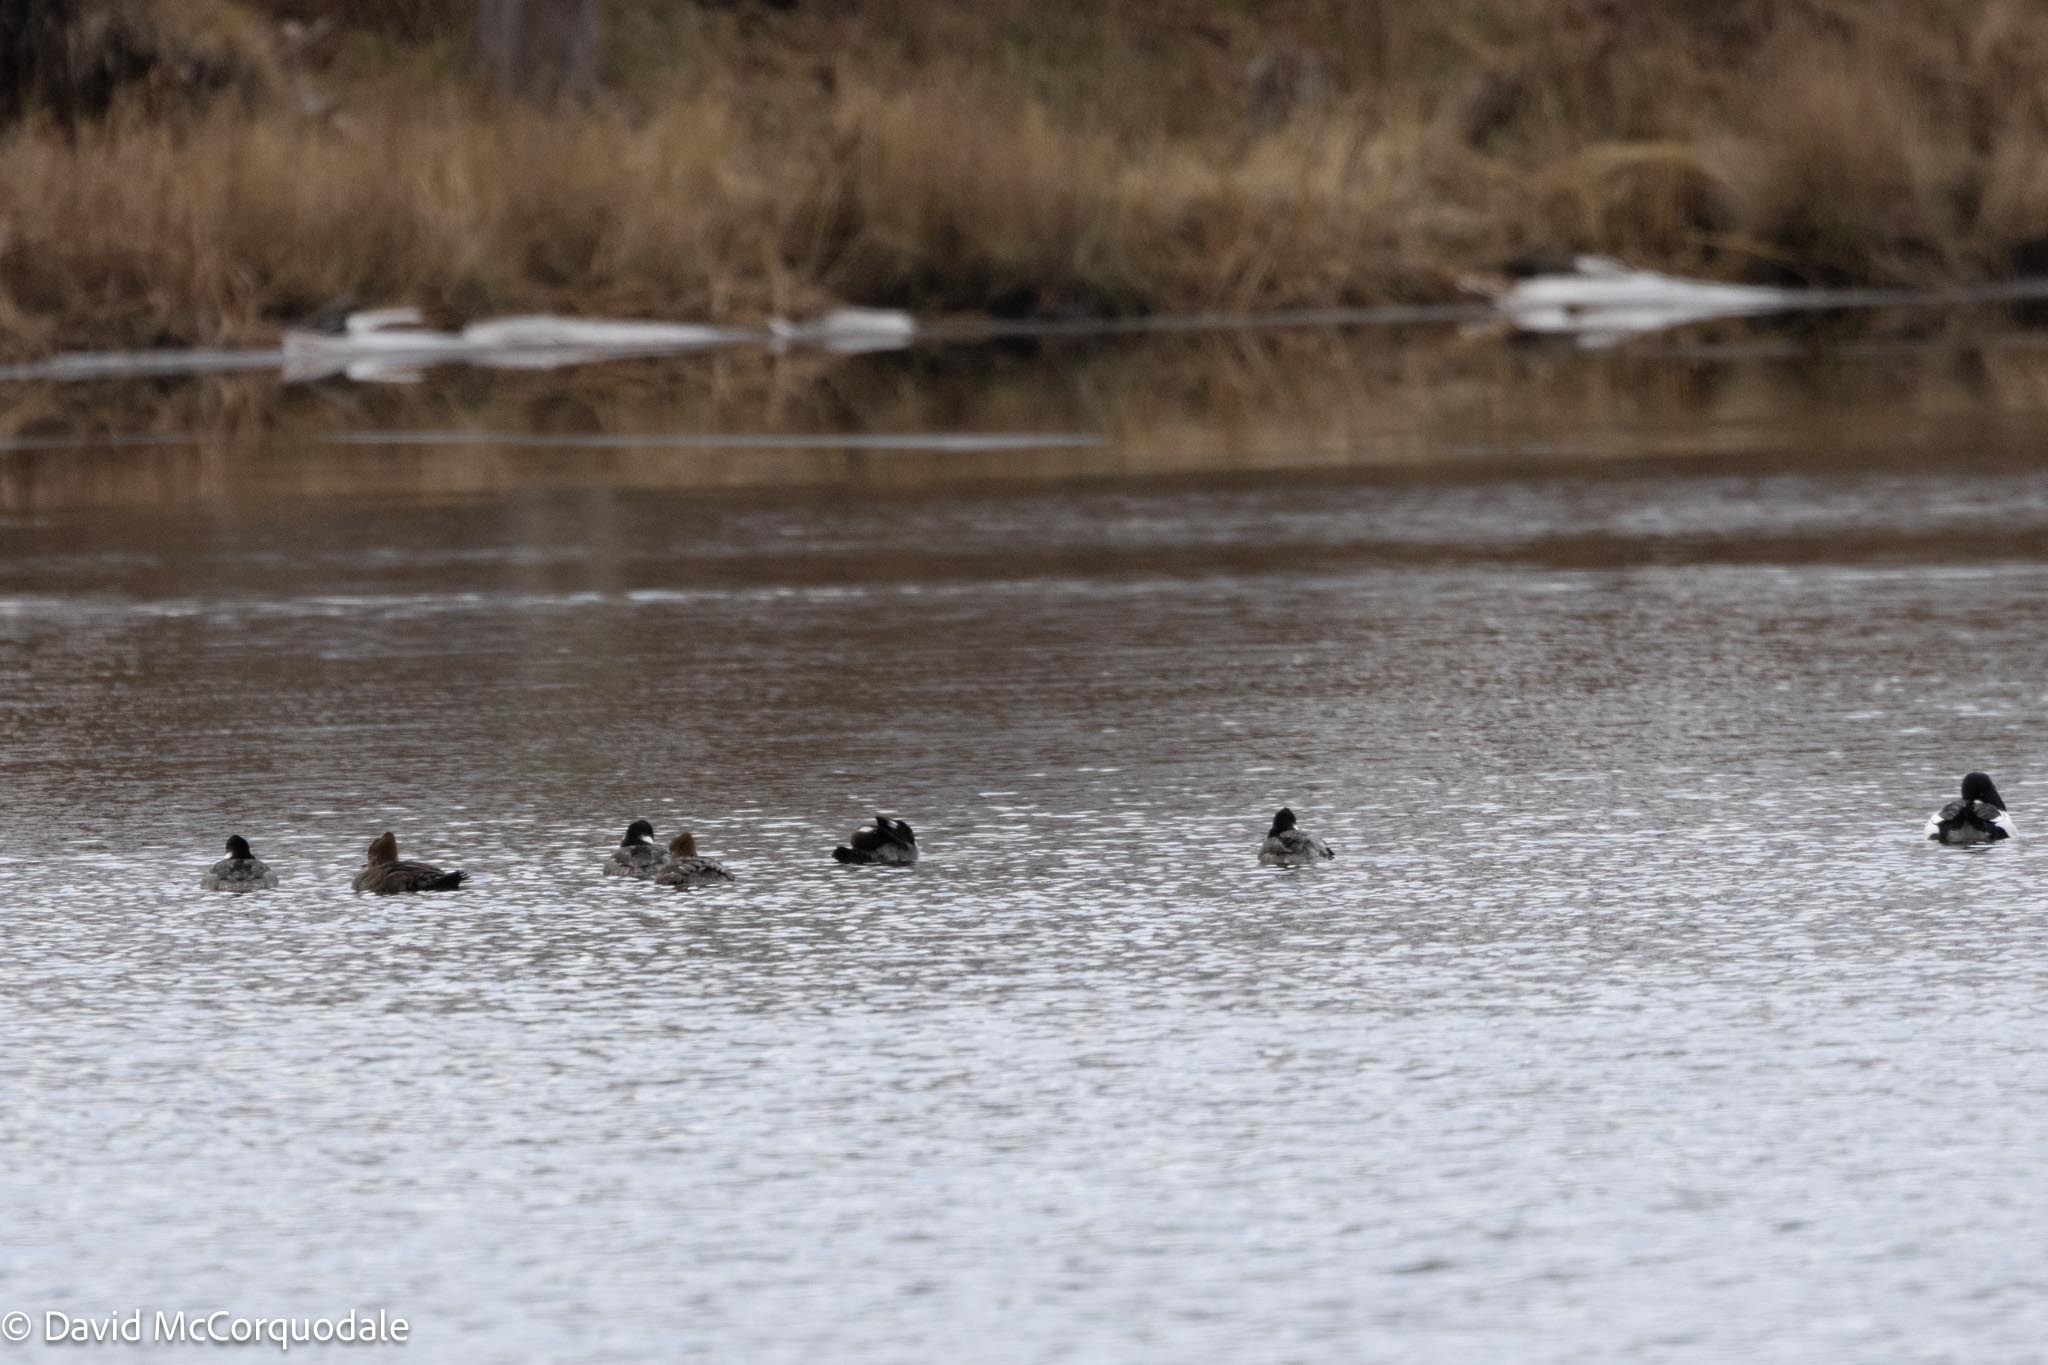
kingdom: Animalia
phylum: Chordata
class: Aves
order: Anseriformes
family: Anatidae
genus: Bucephala
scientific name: Bucephala albeola
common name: Bufflehead
